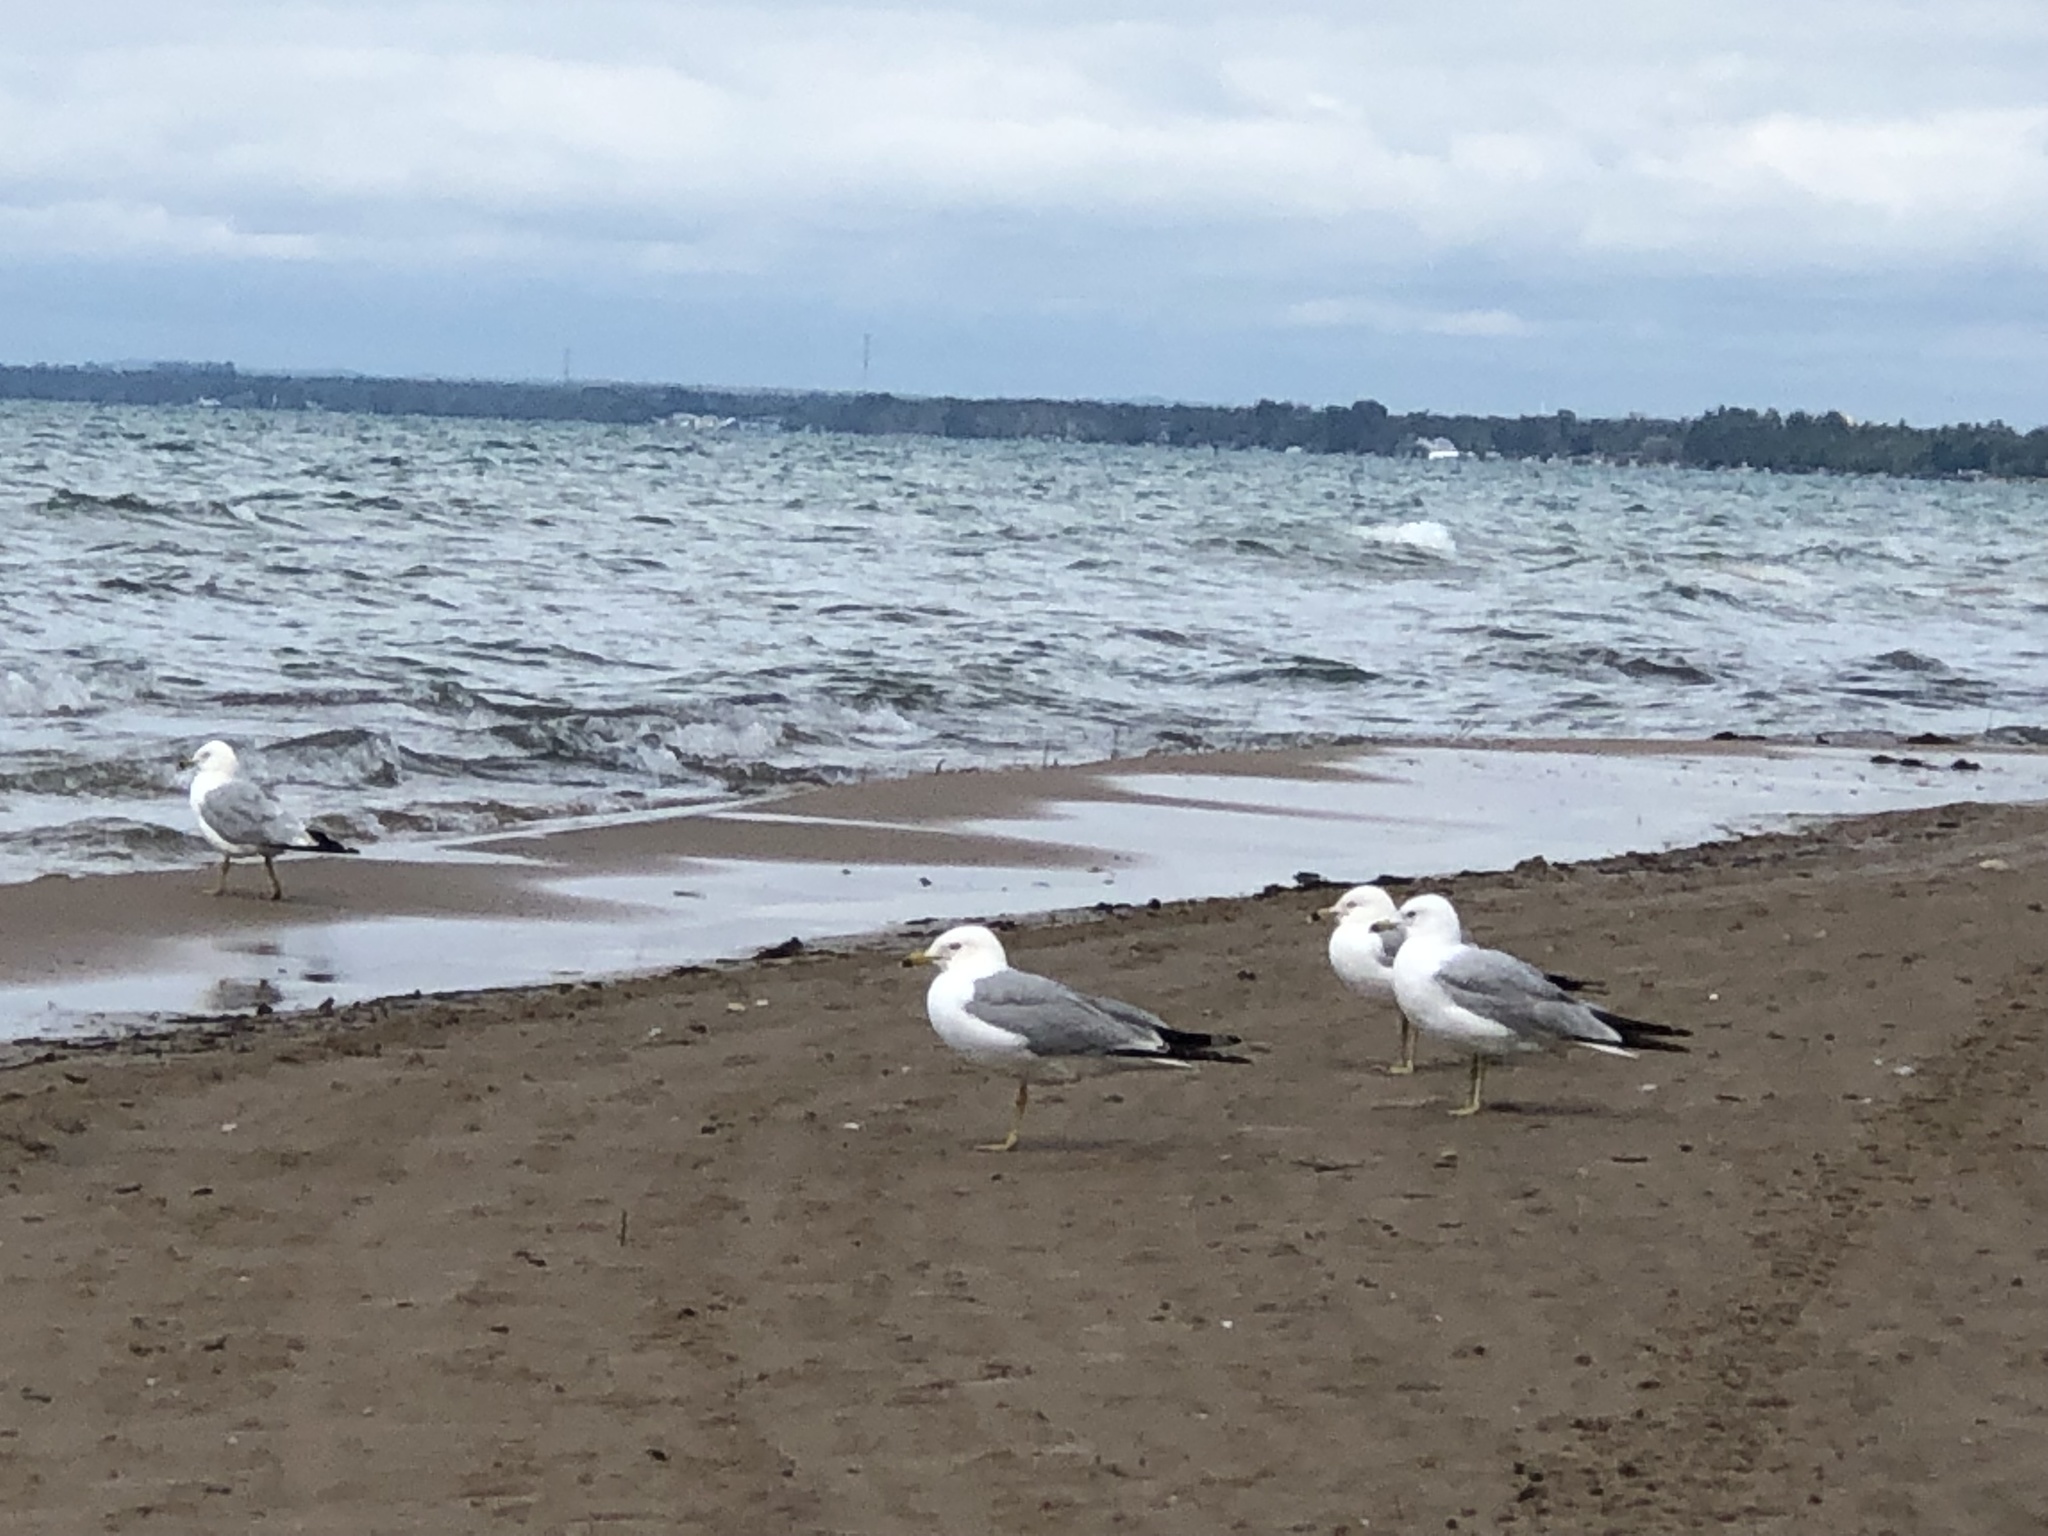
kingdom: Animalia
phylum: Chordata
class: Aves
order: Charadriiformes
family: Laridae
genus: Larus
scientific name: Larus delawarensis
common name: Ring-billed gull
